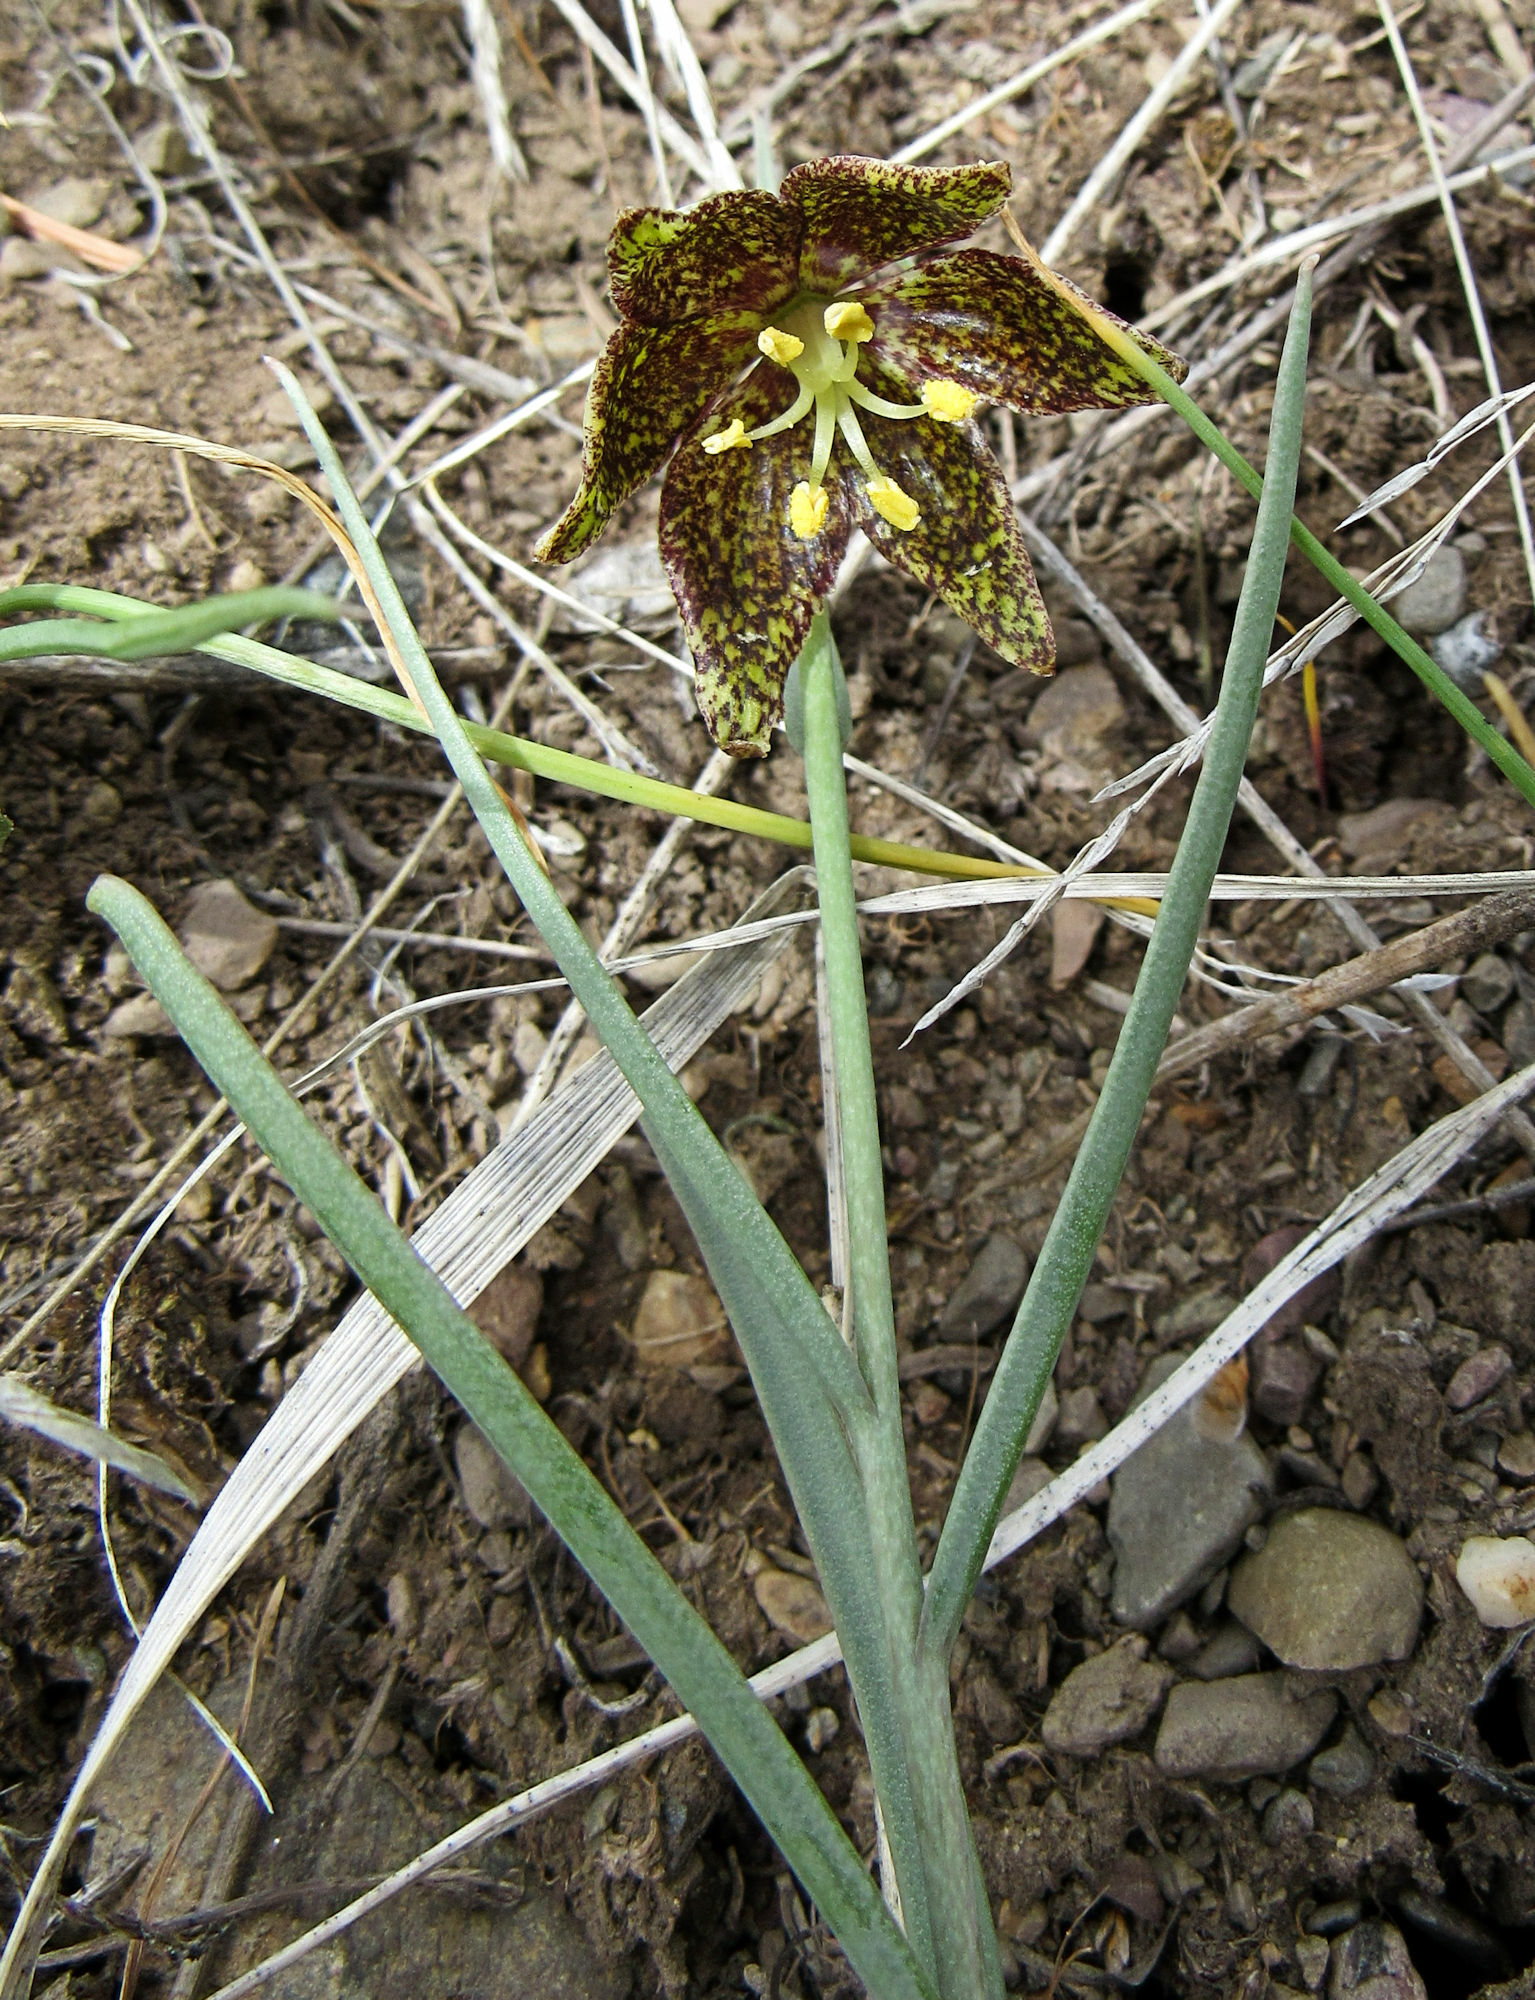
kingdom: Plantae
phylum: Tracheophyta
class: Liliopsida
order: Liliales
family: Liliaceae
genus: Fritillaria
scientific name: Fritillaria atropurpurea
